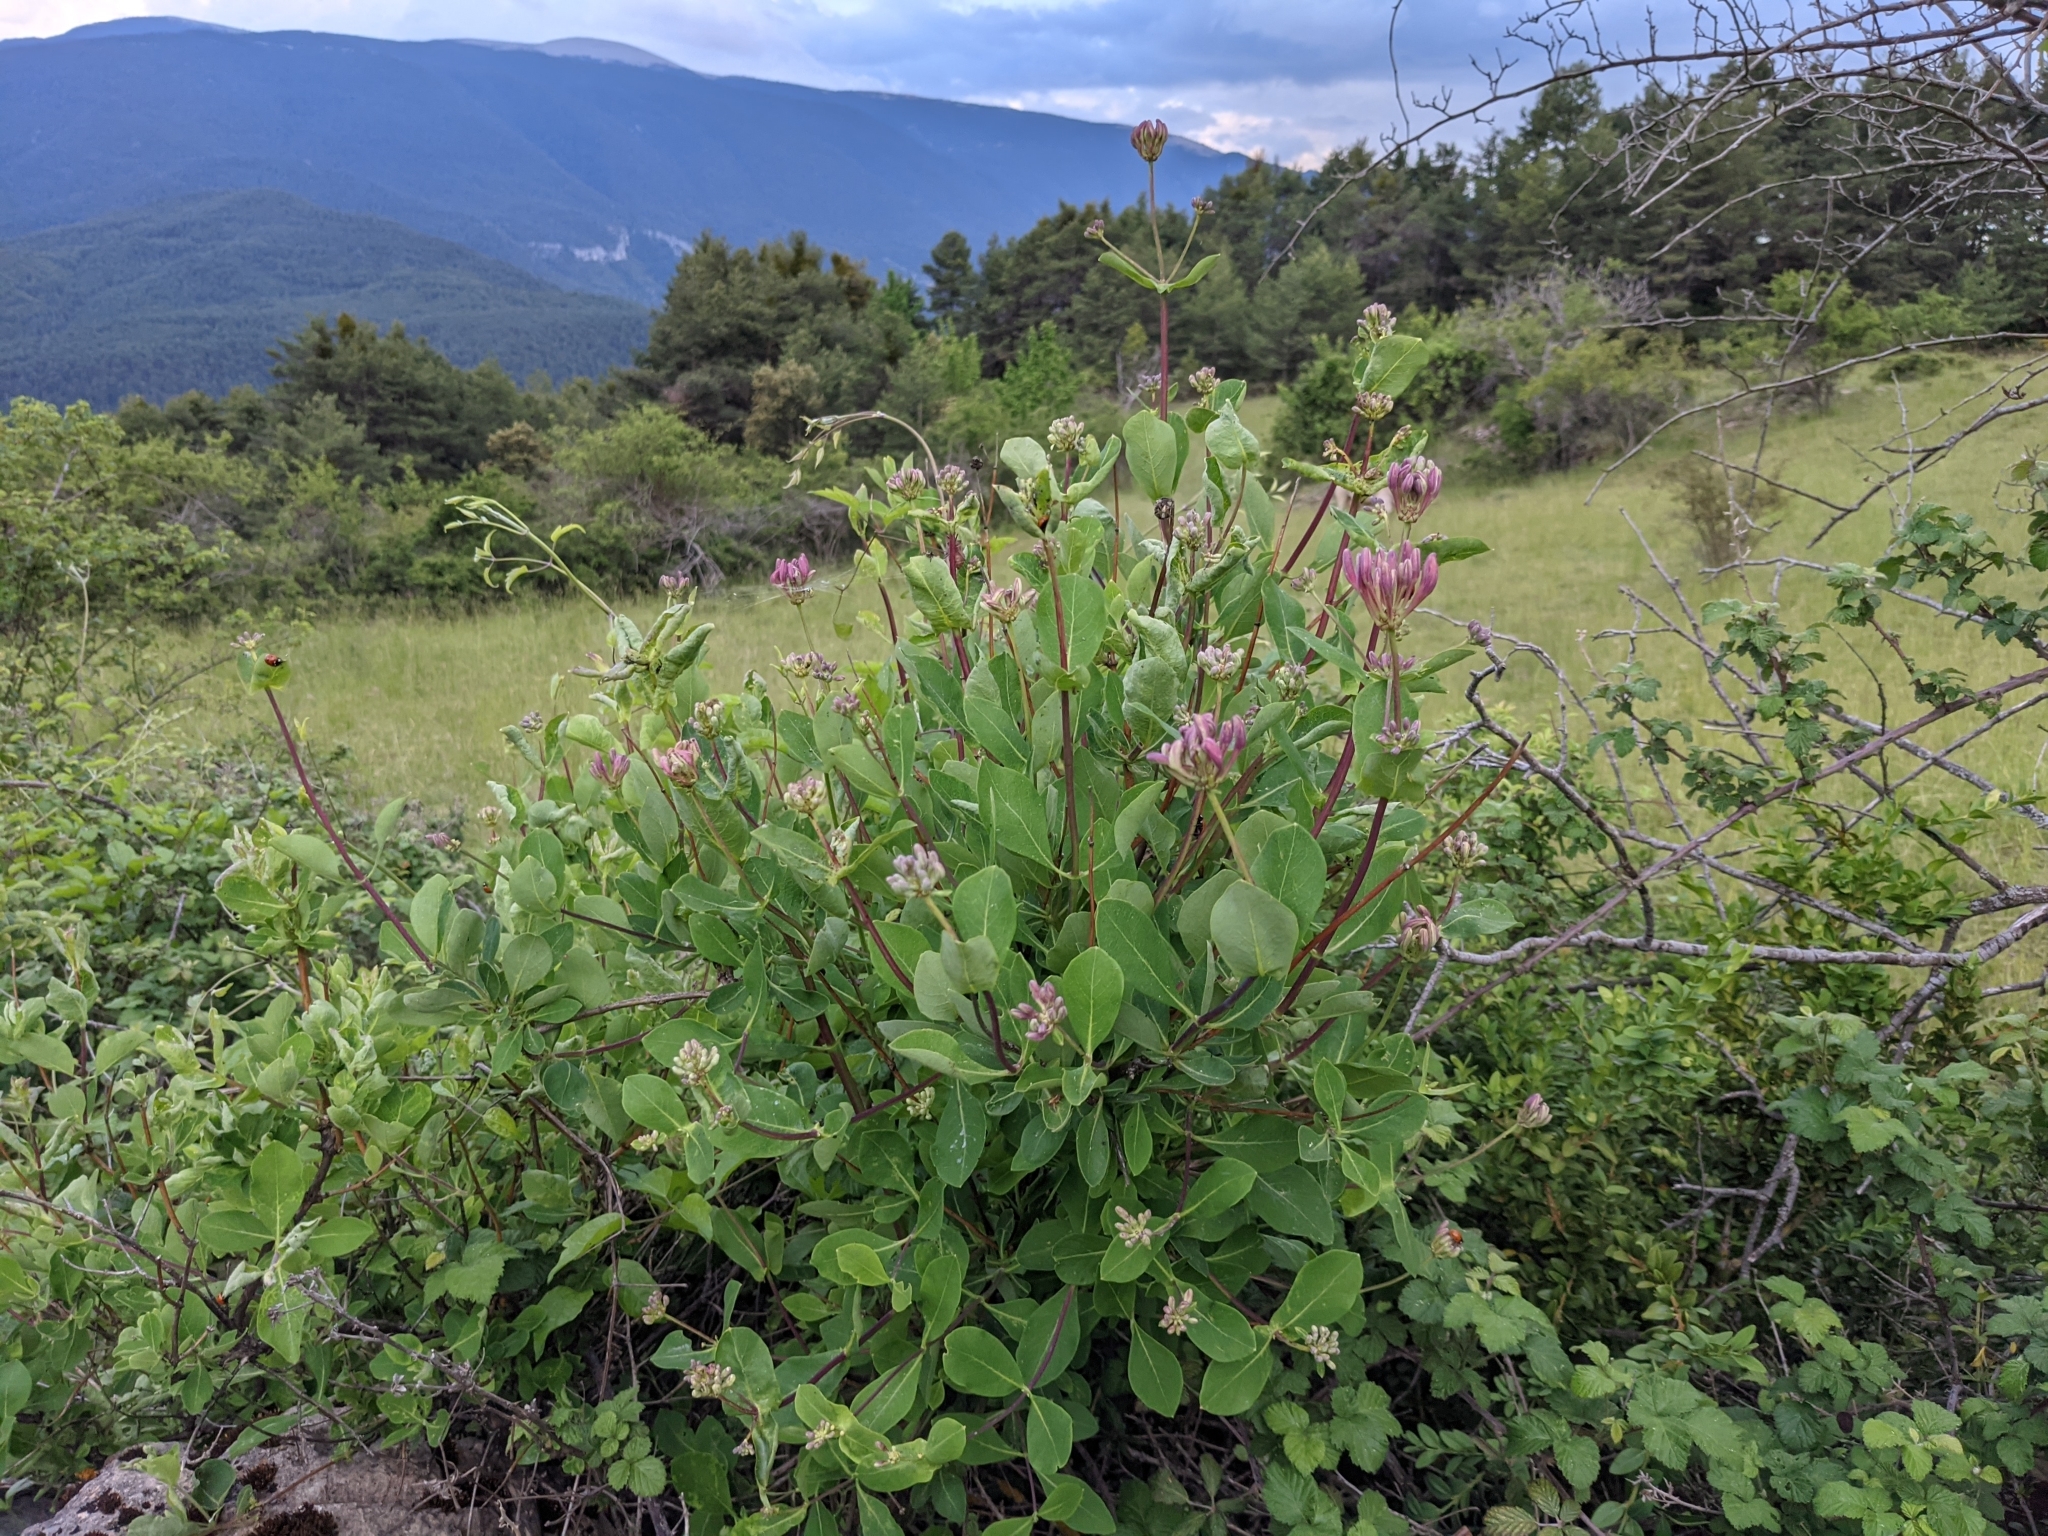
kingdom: Plantae
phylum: Tracheophyta
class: Magnoliopsida
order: Dipsacales
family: Caprifoliaceae
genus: Lonicera
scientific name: Lonicera etrusca
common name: Etruscan honeysuckle
